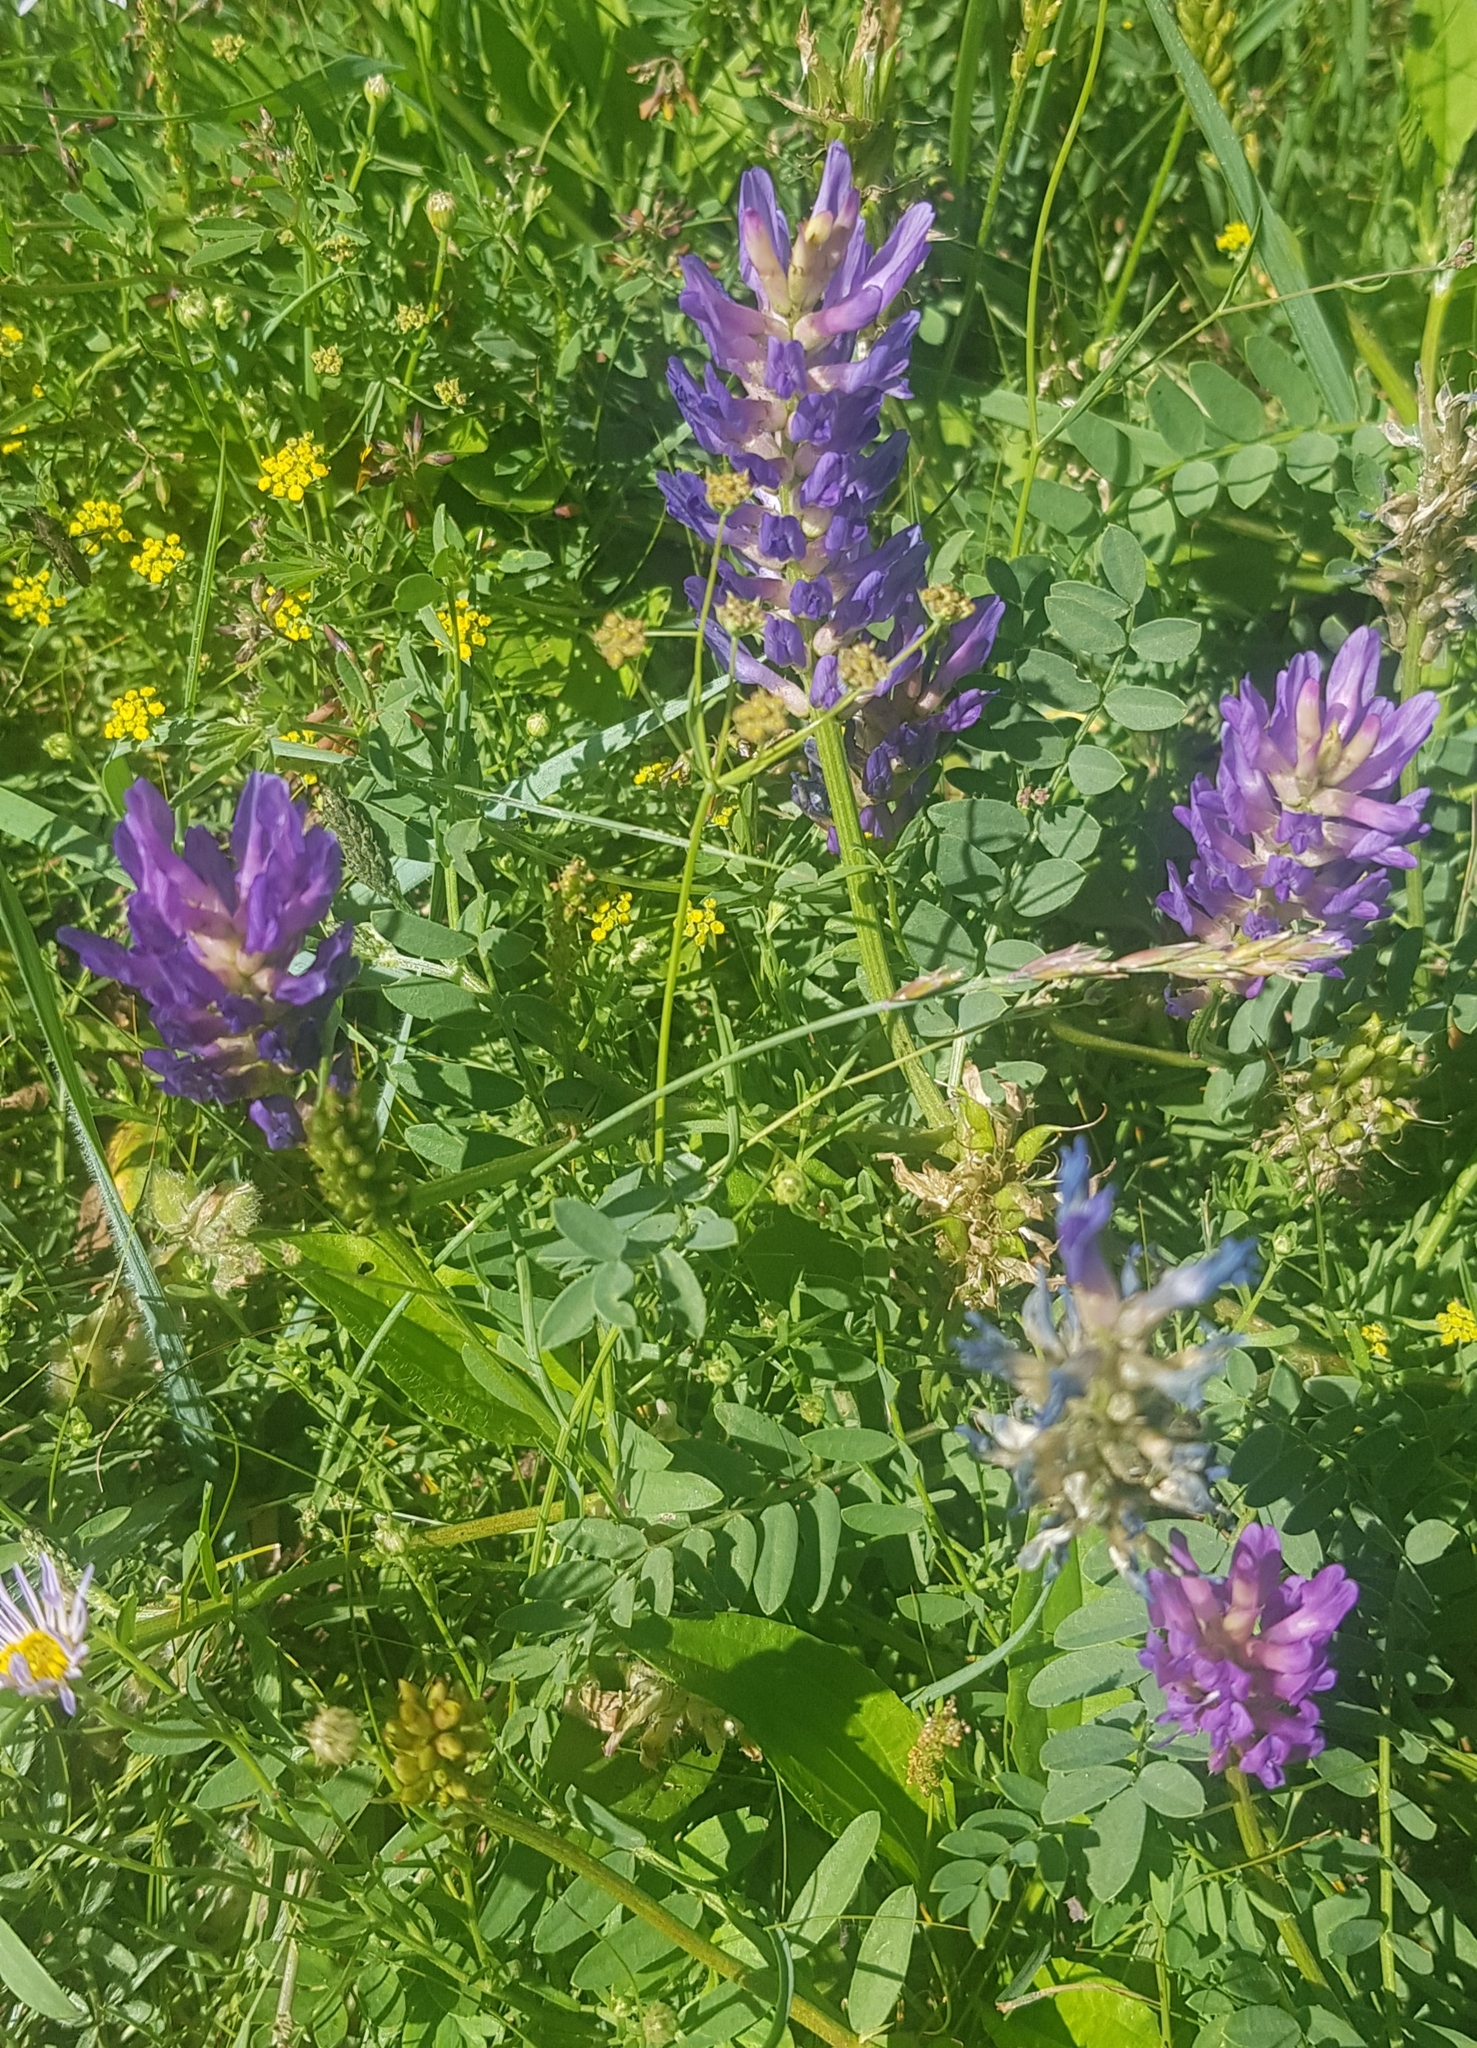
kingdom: Plantae
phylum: Tracheophyta
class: Magnoliopsida
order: Fabales
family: Fabaceae
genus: Astragalus
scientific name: Astragalus laxmannii
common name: Laxmann's milk-vetch
